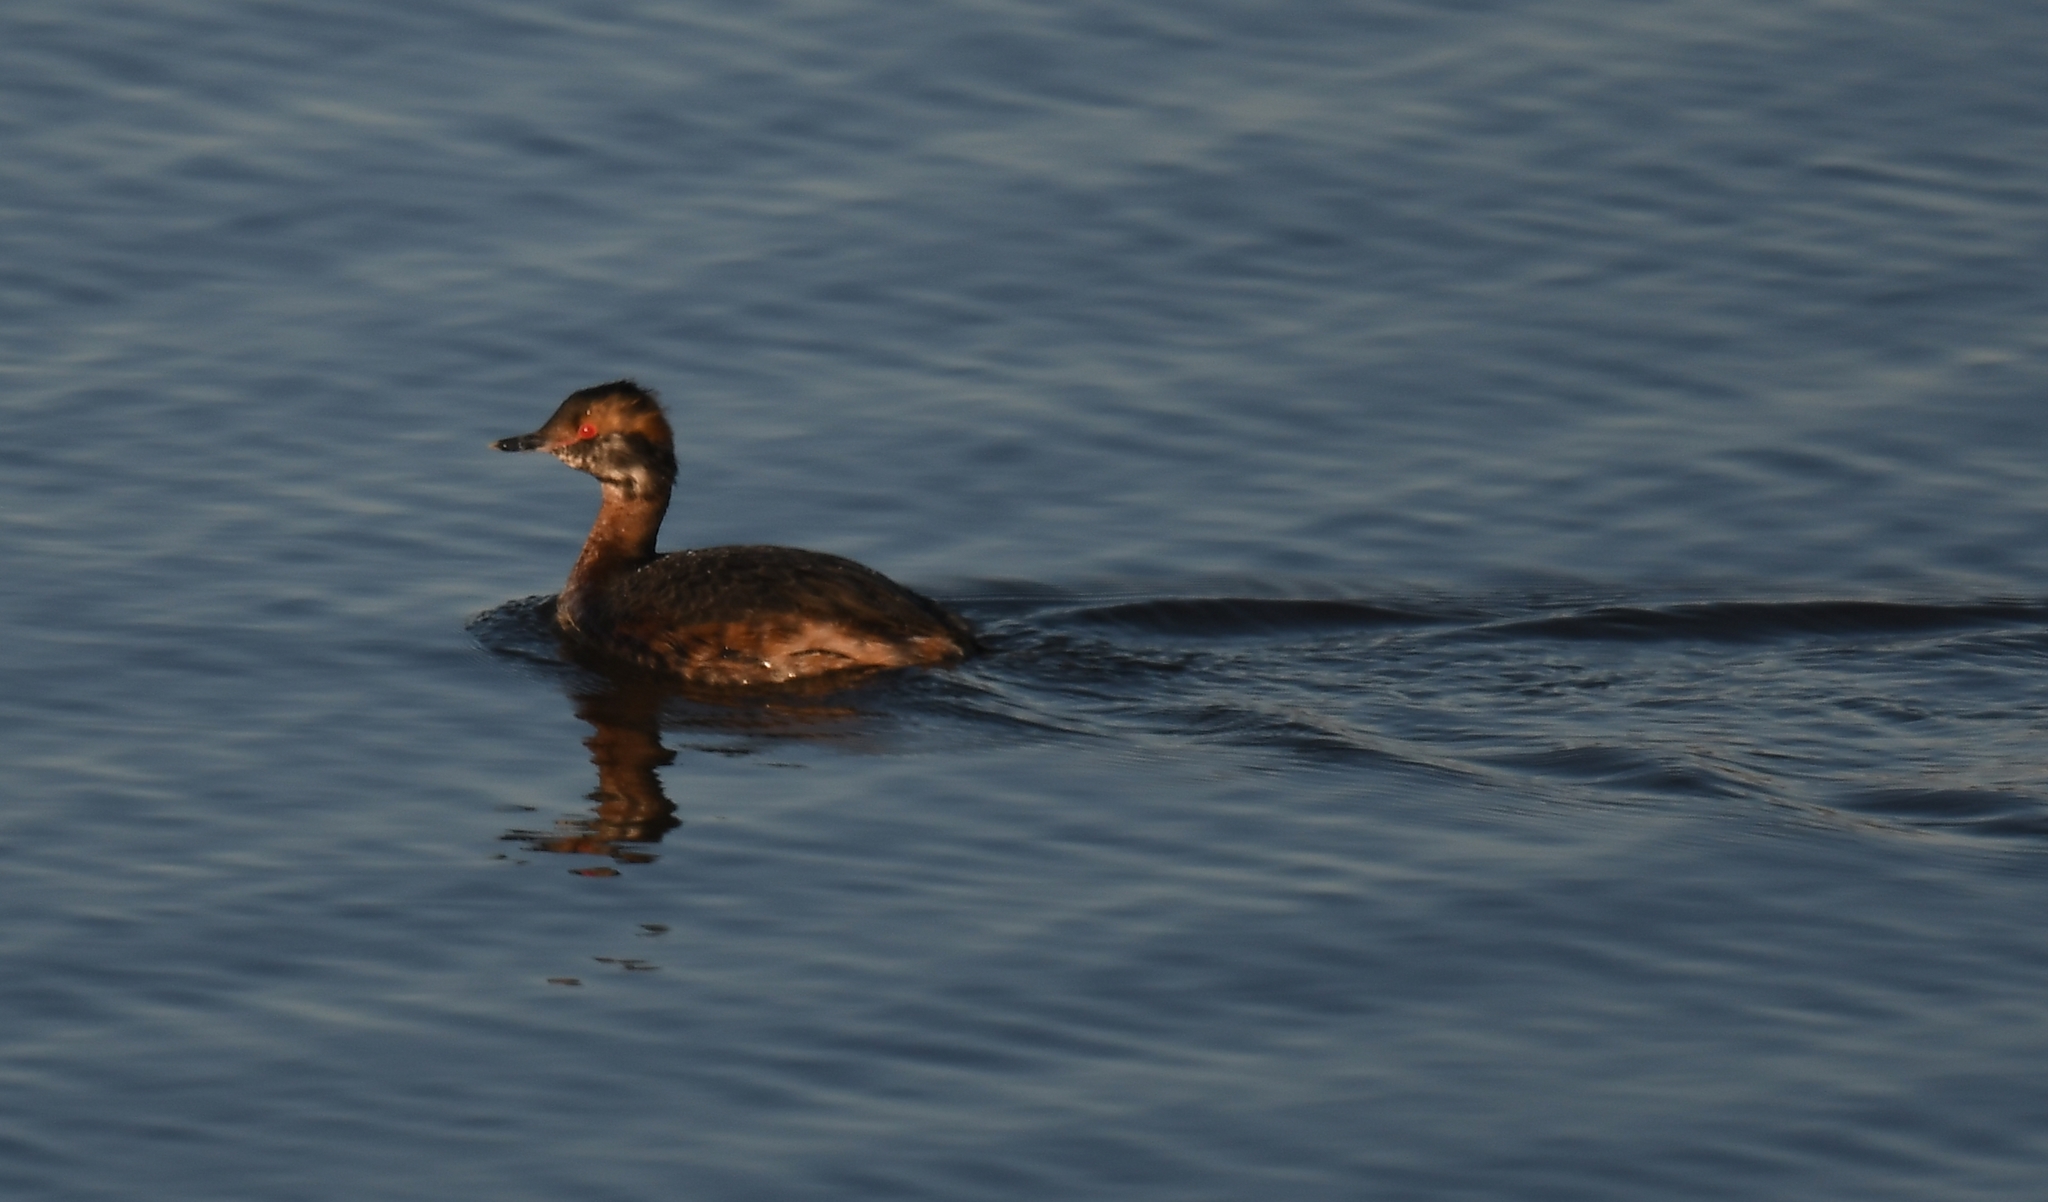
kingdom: Animalia
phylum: Chordata
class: Aves
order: Podicipediformes
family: Podicipedidae
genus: Podiceps
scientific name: Podiceps auritus
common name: Horned grebe
